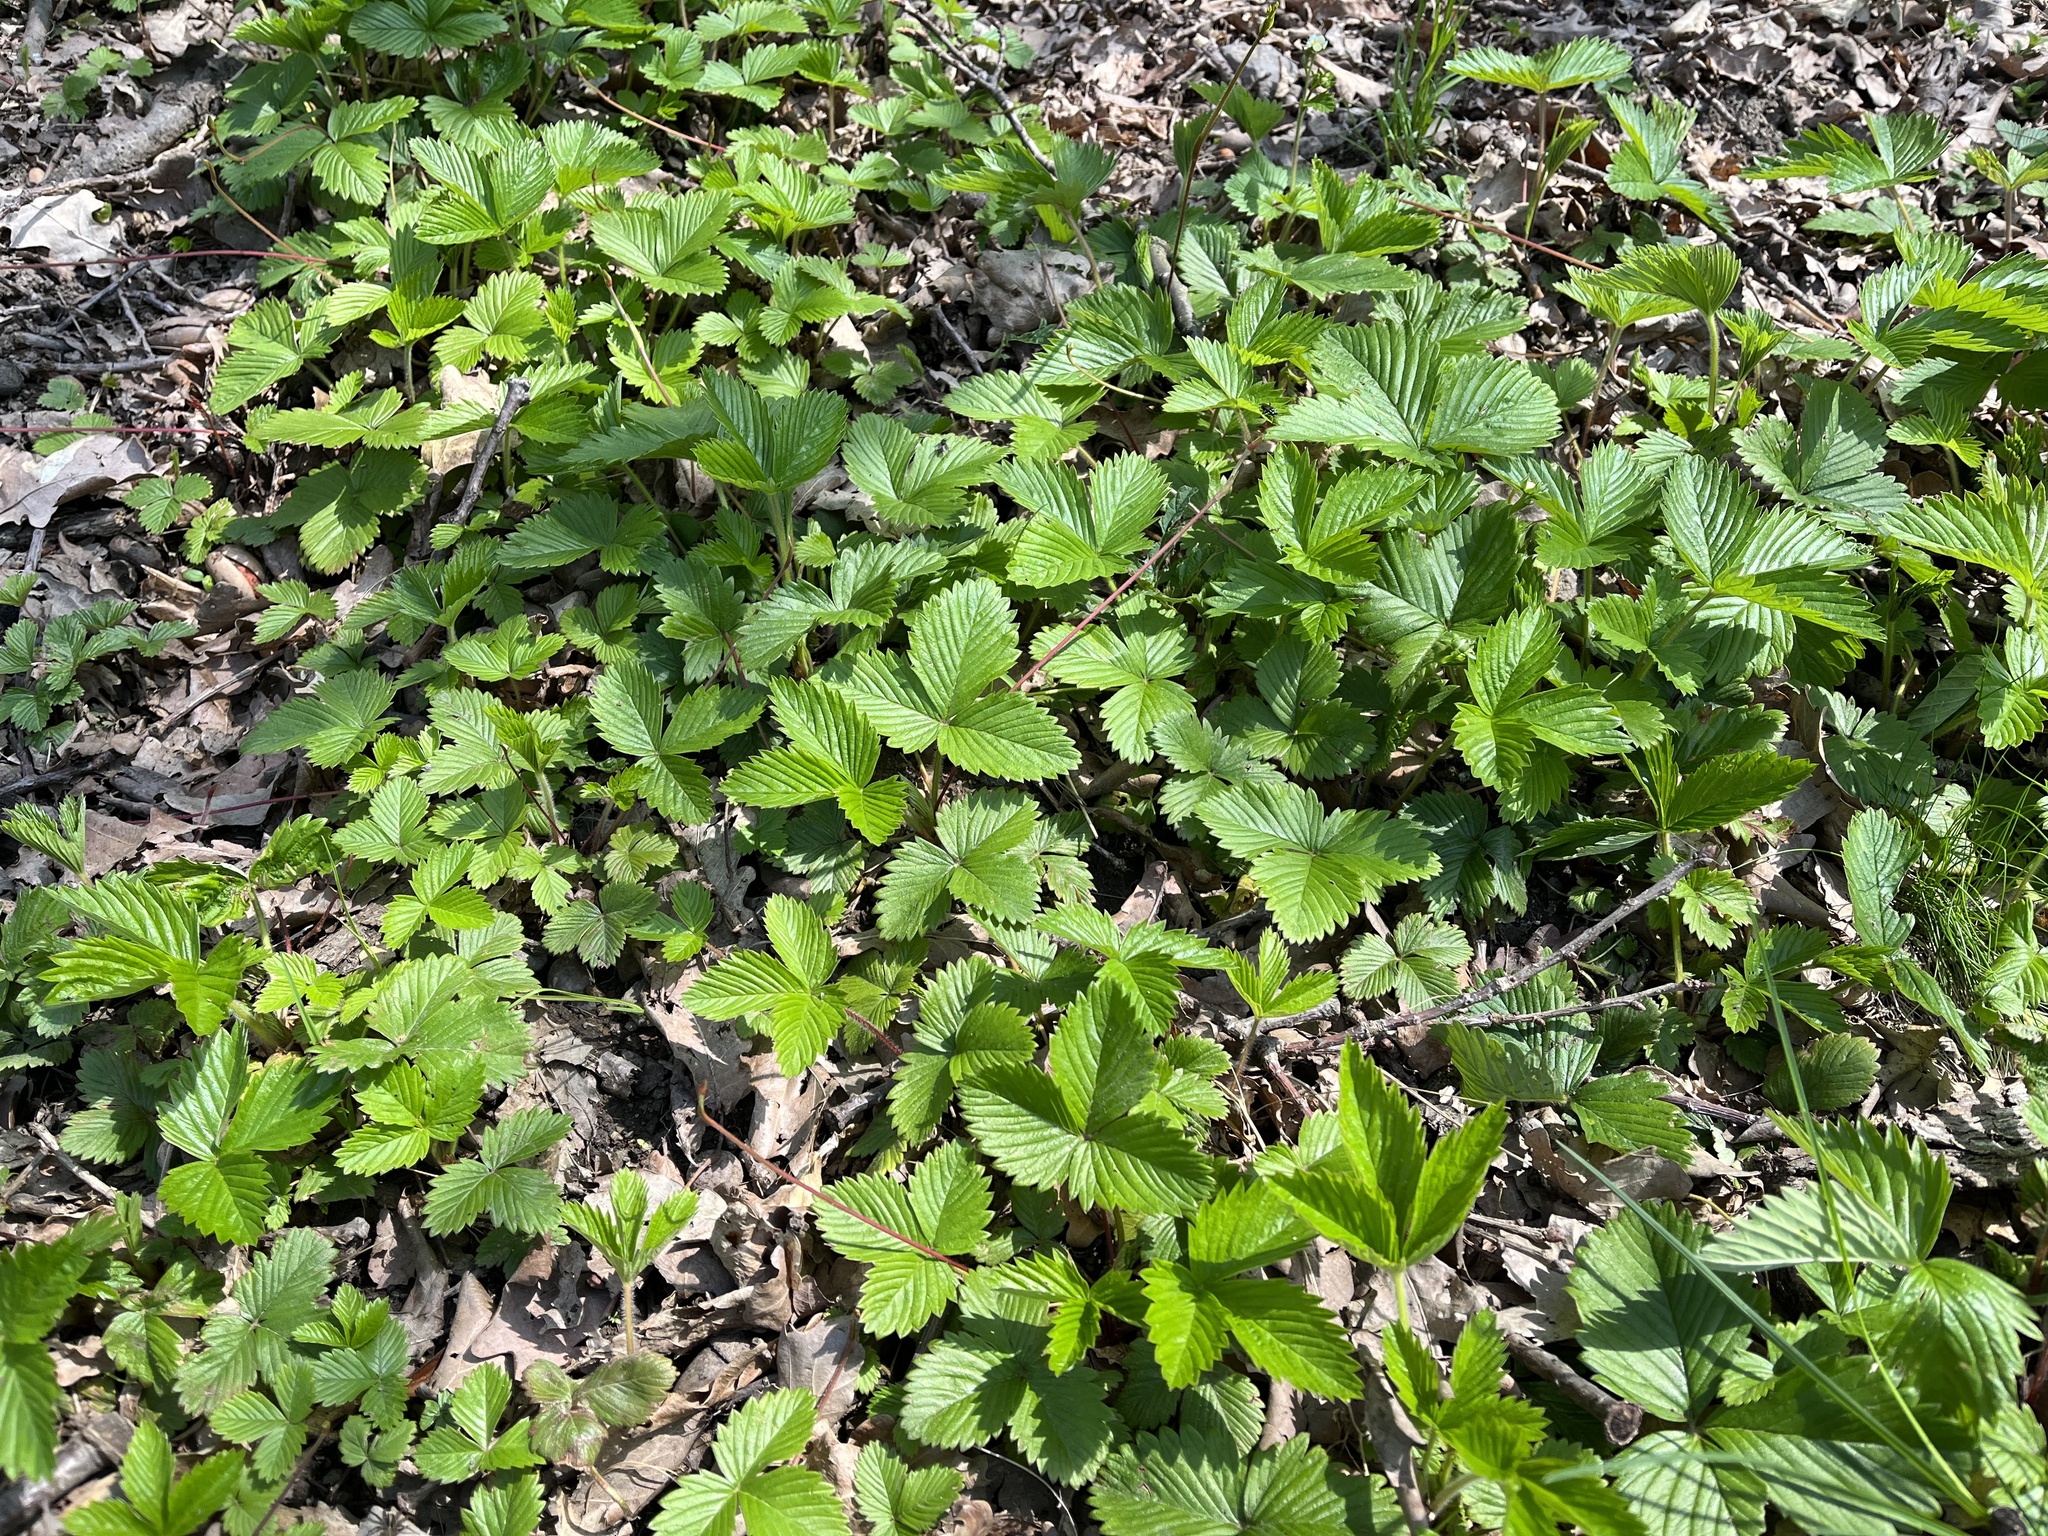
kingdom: Plantae
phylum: Tracheophyta
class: Magnoliopsida
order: Rosales
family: Rosaceae
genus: Fragaria
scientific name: Fragaria vesca
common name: Wild strawberry
